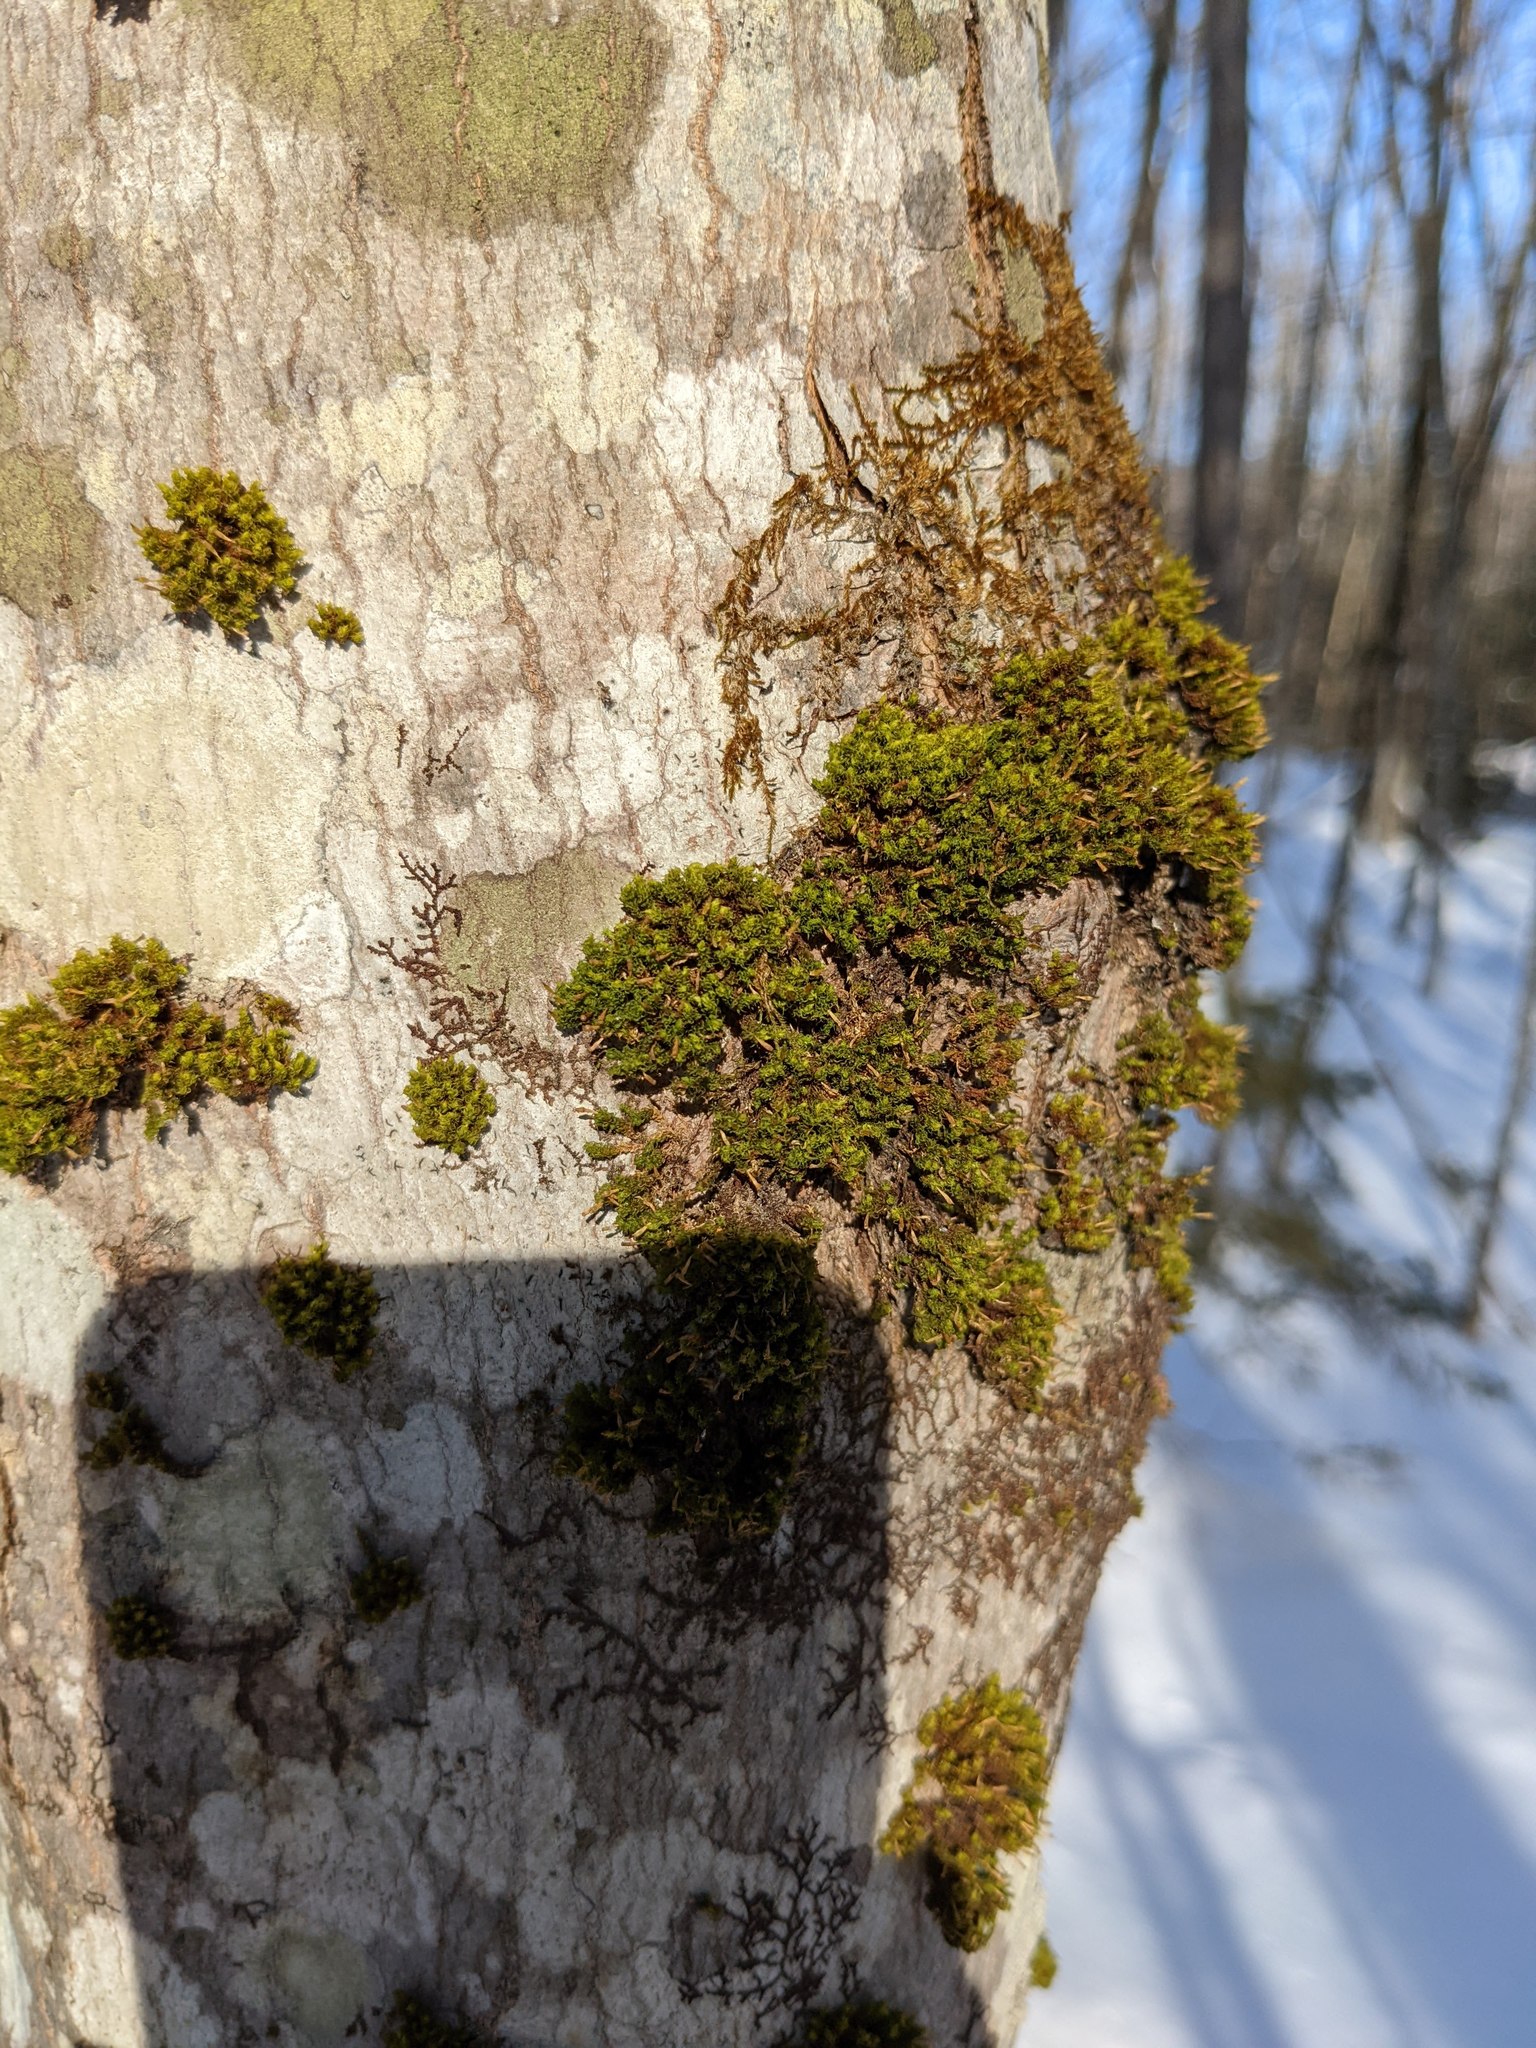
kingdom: Plantae
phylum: Bryophyta
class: Bryopsida
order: Orthotrichales
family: Orthotrichaceae
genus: Ulota
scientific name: Ulota crispa
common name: Crisped pincushion moss
